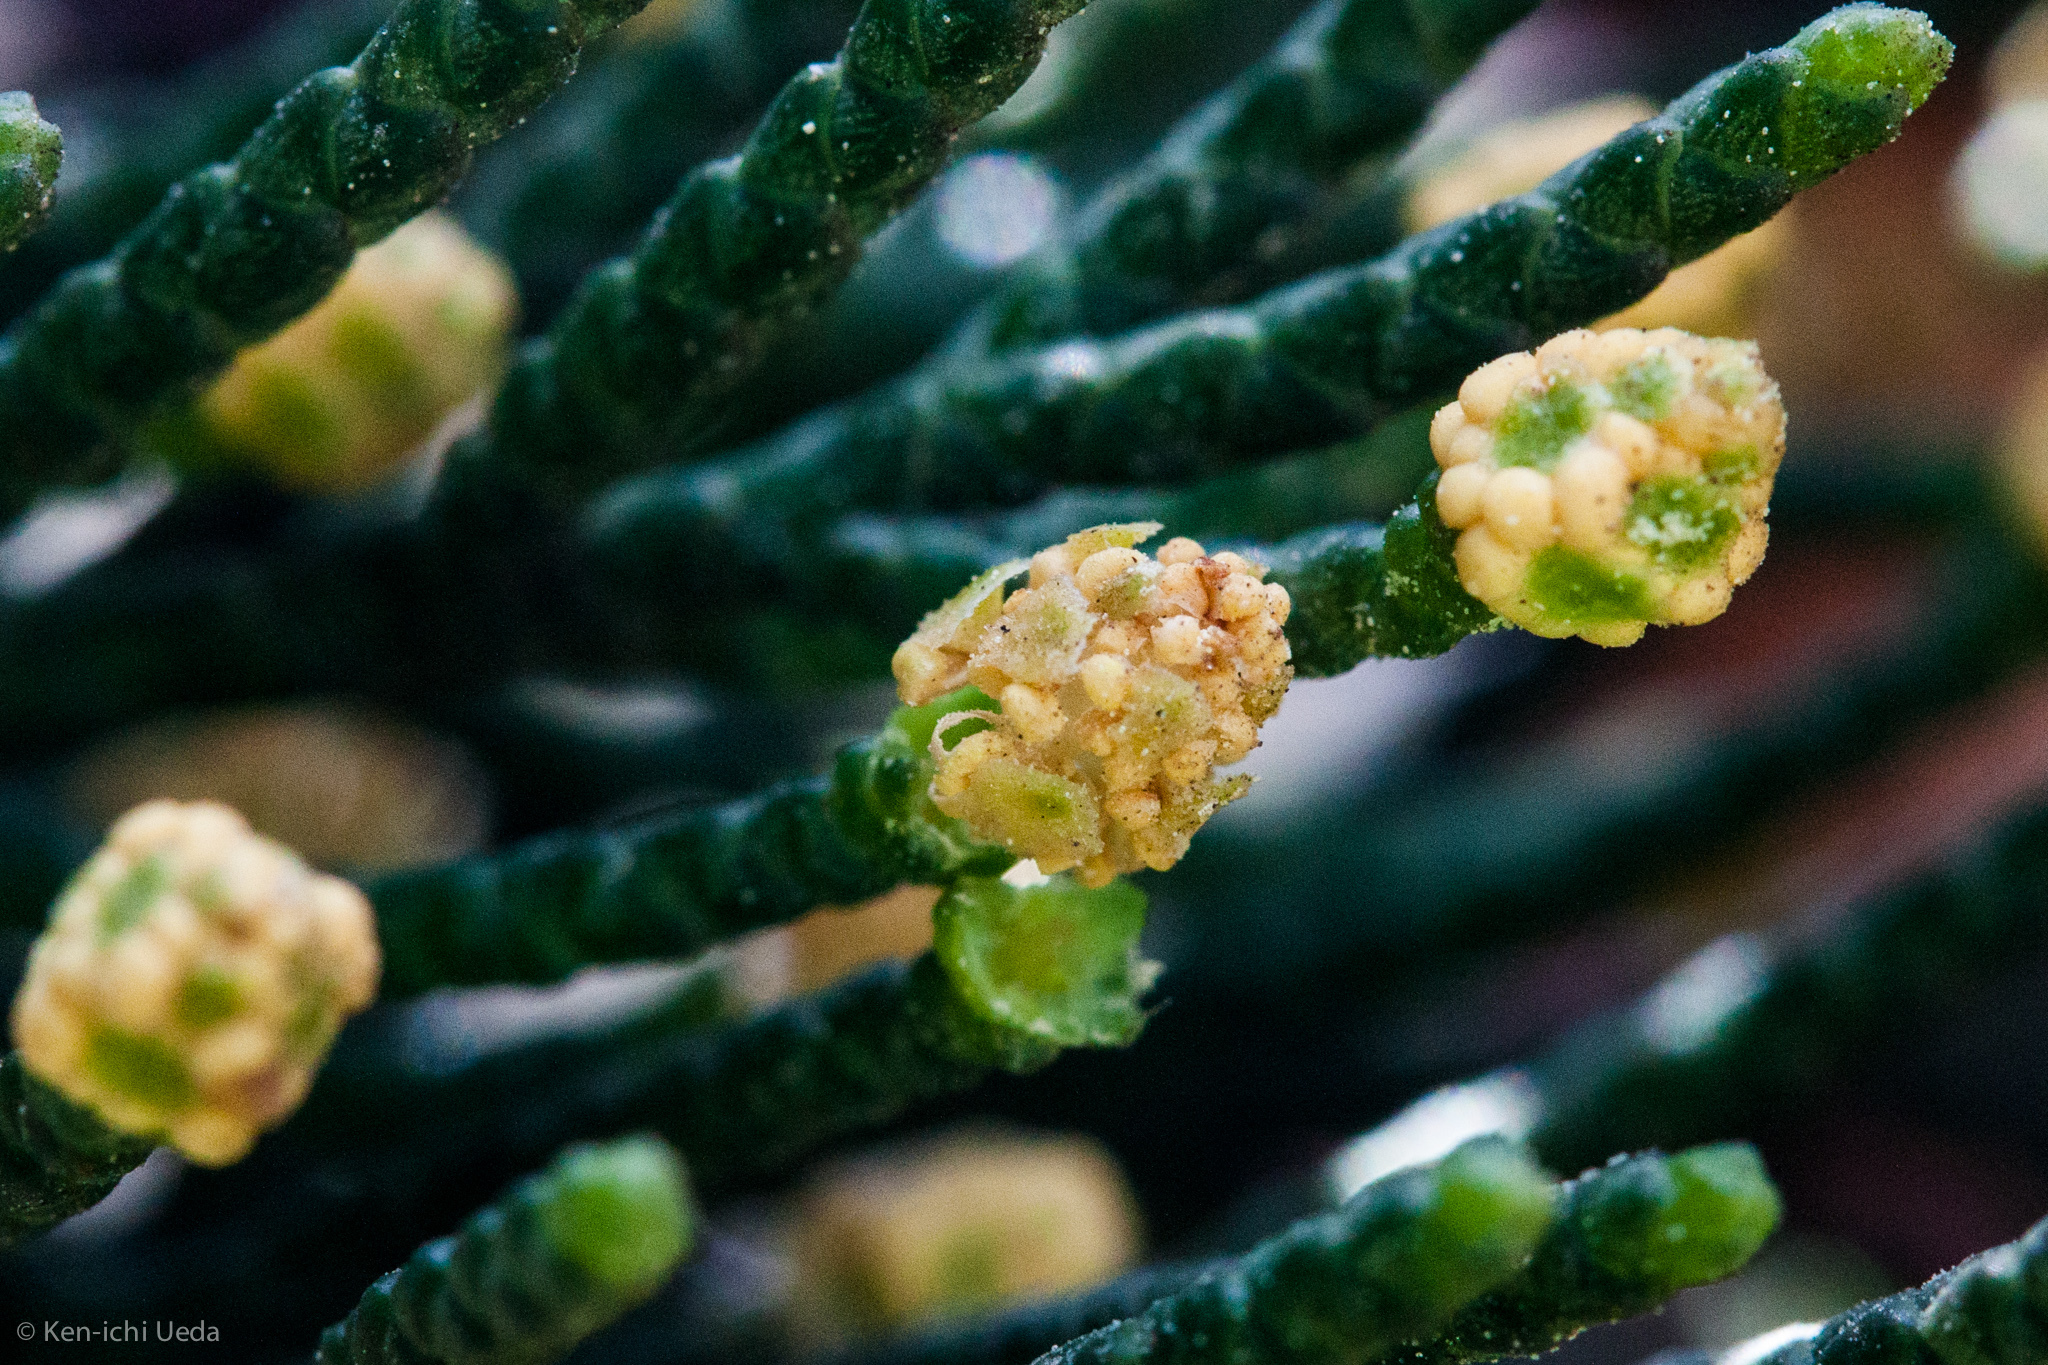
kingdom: Plantae
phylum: Tracheophyta
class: Pinopsida
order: Pinales
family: Cupressaceae
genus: Cupressus
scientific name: Cupressus macrocarpa
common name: Monterey cypress
